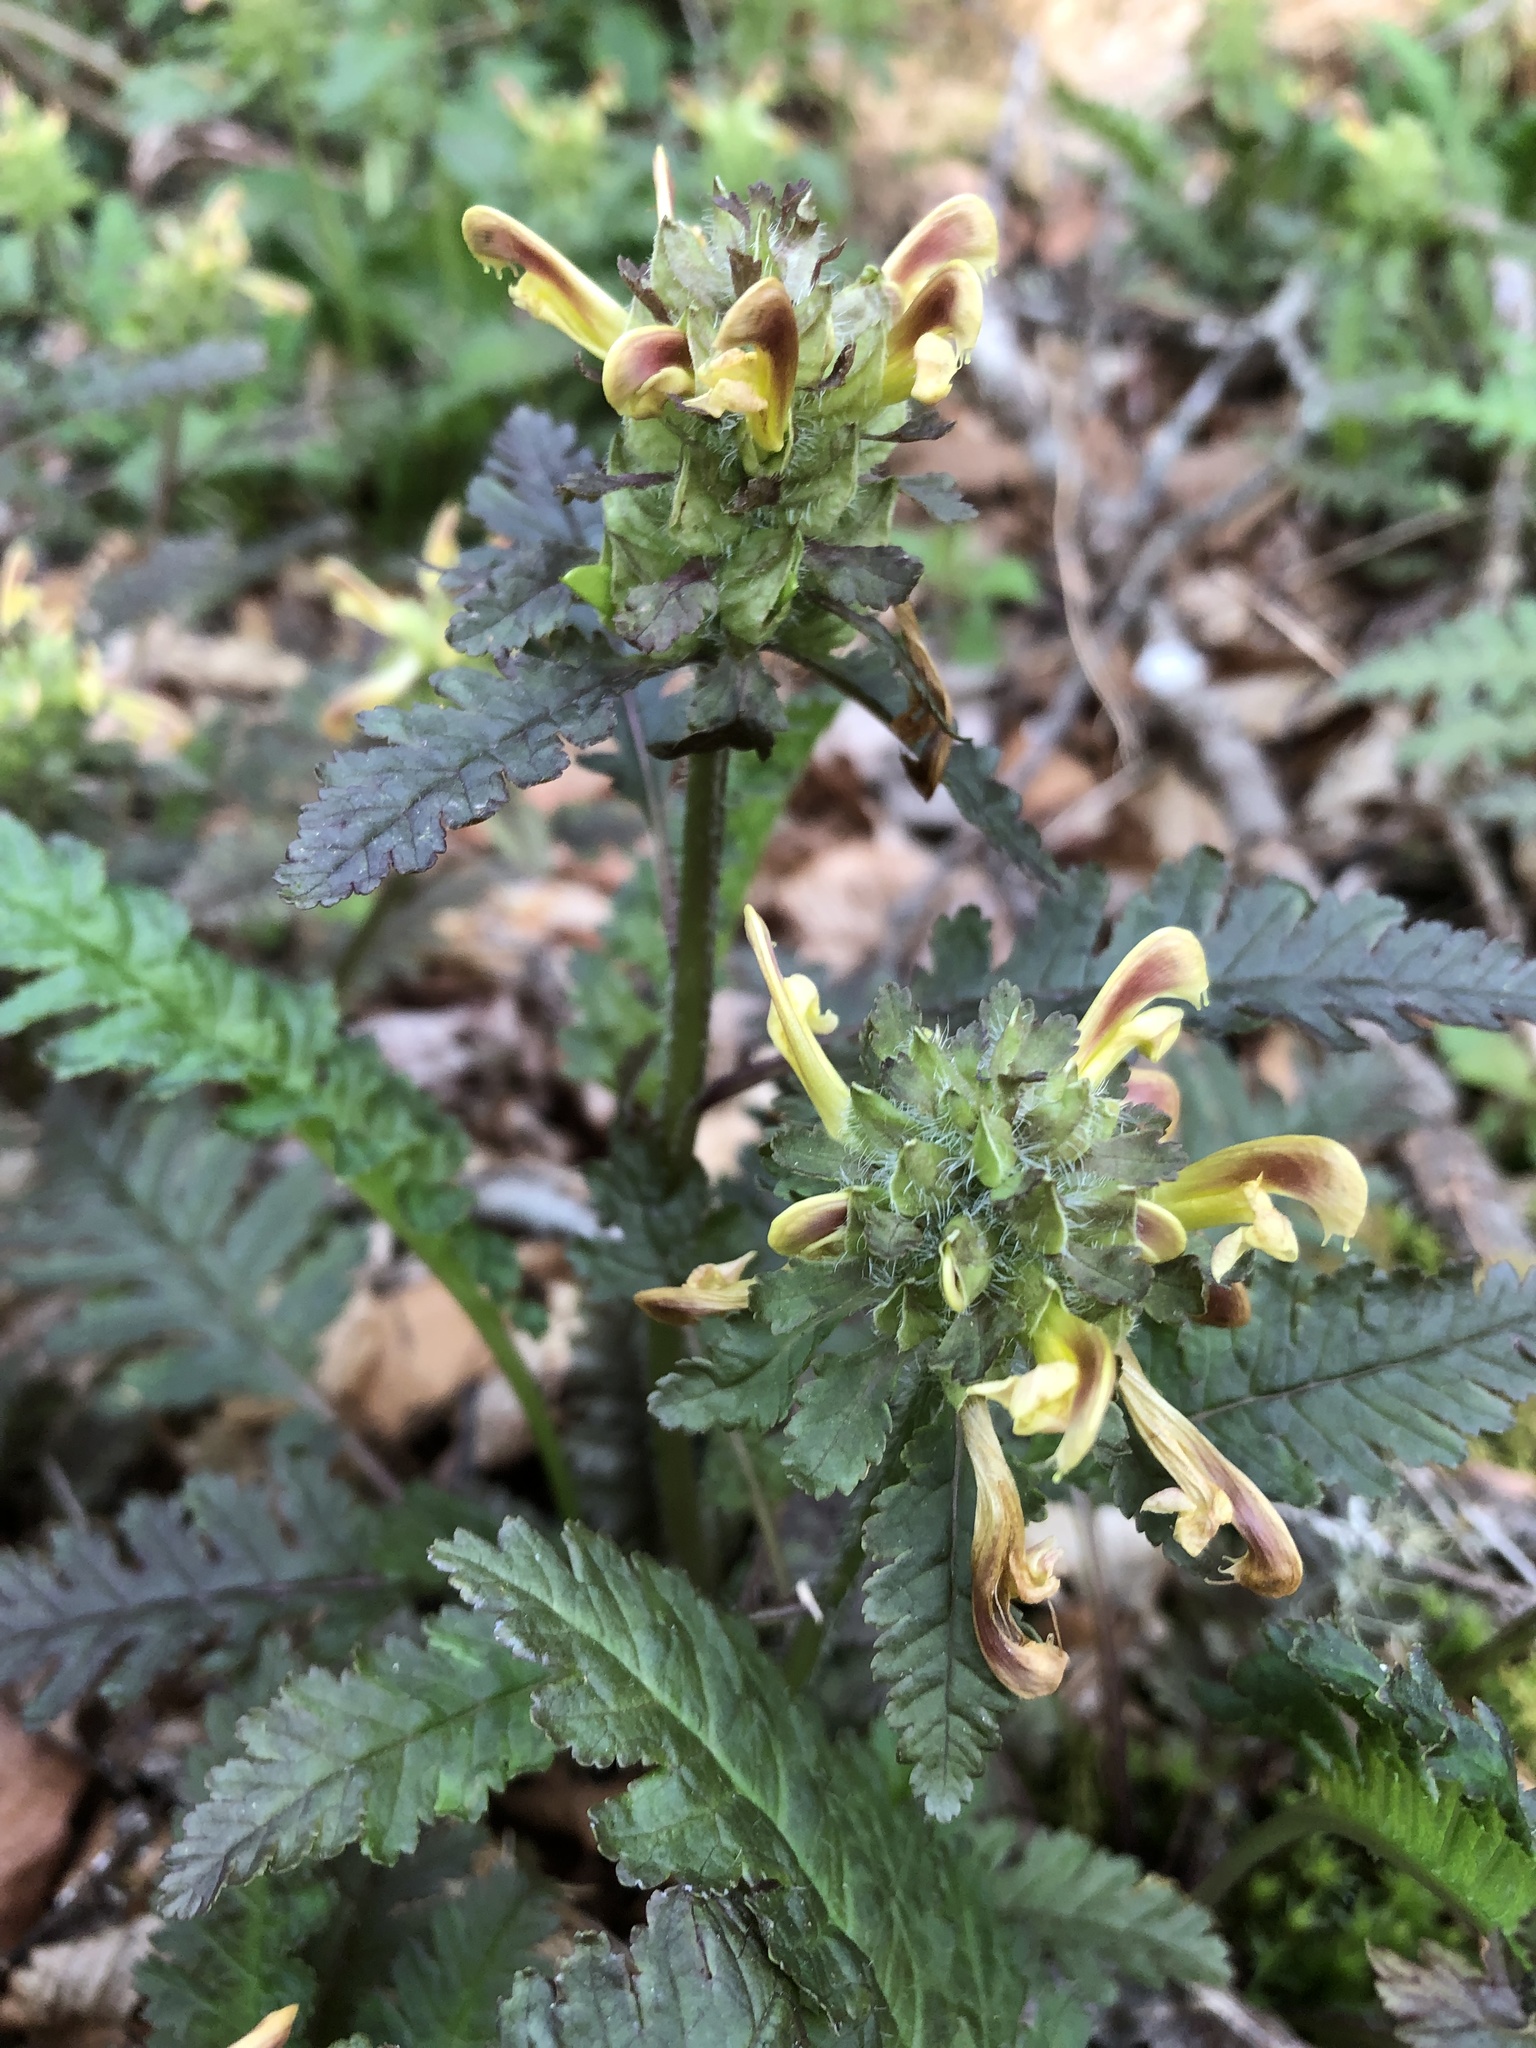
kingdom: Plantae
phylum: Tracheophyta
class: Magnoliopsida
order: Lamiales
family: Orobanchaceae
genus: Pedicularis
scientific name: Pedicularis canadensis
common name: Early lousewort
